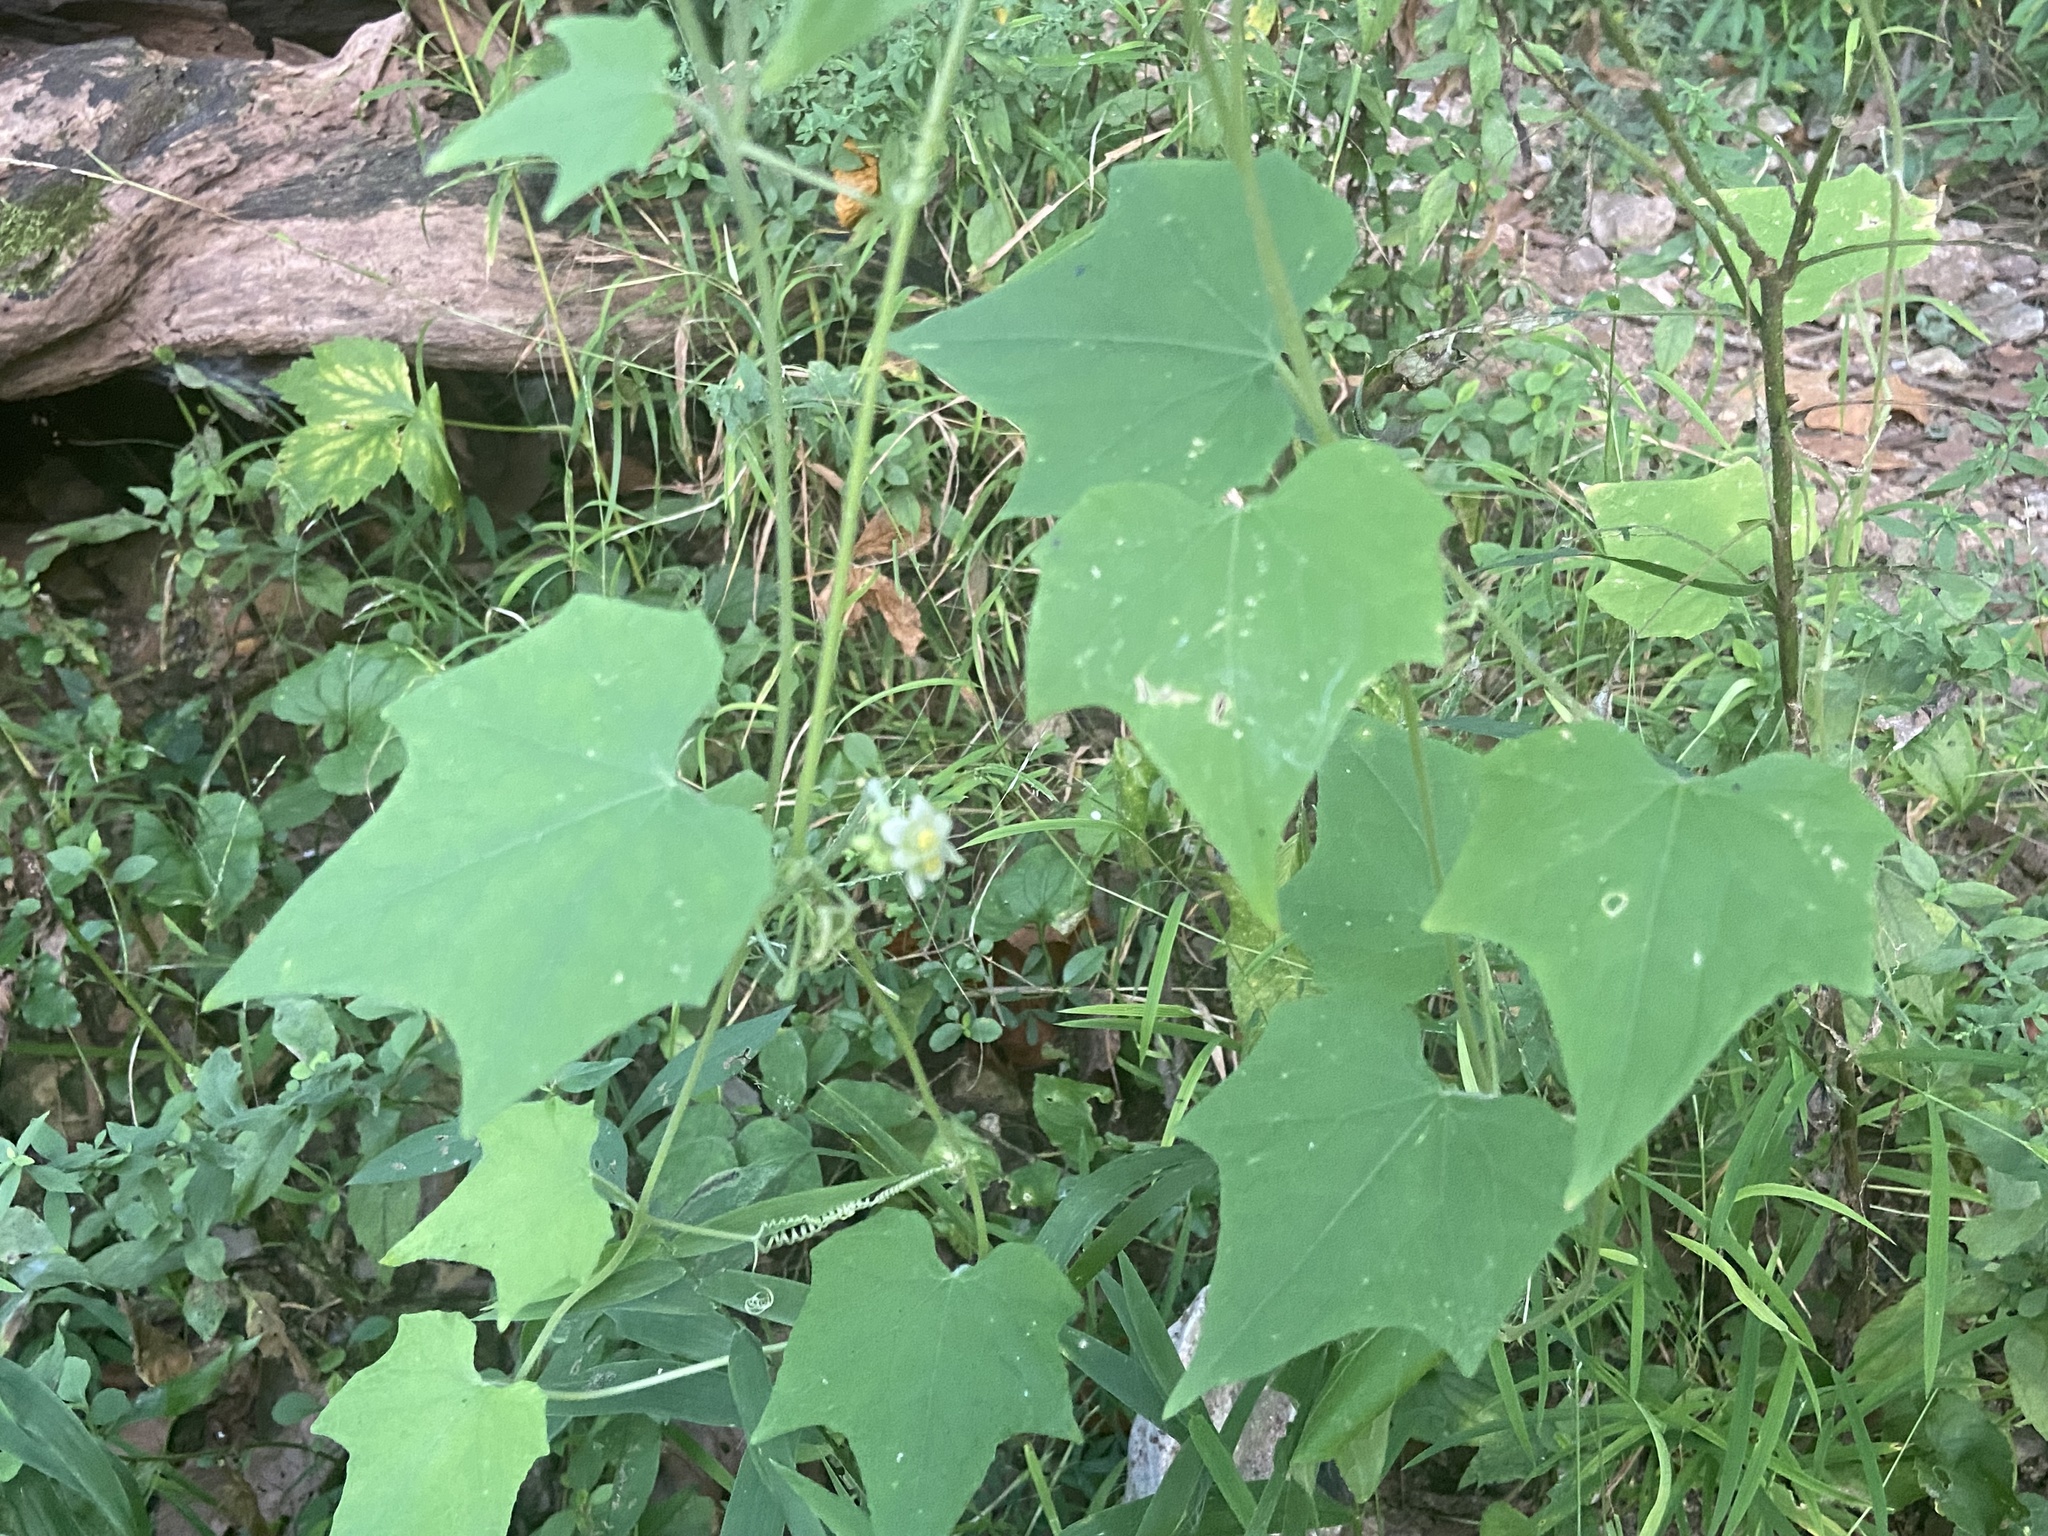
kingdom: Plantae
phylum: Tracheophyta
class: Magnoliopsida
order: Cucurbitales
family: Cucurbitaceae
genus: Sicyos
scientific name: Sicyos angulatus
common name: Angled burr cucumber
